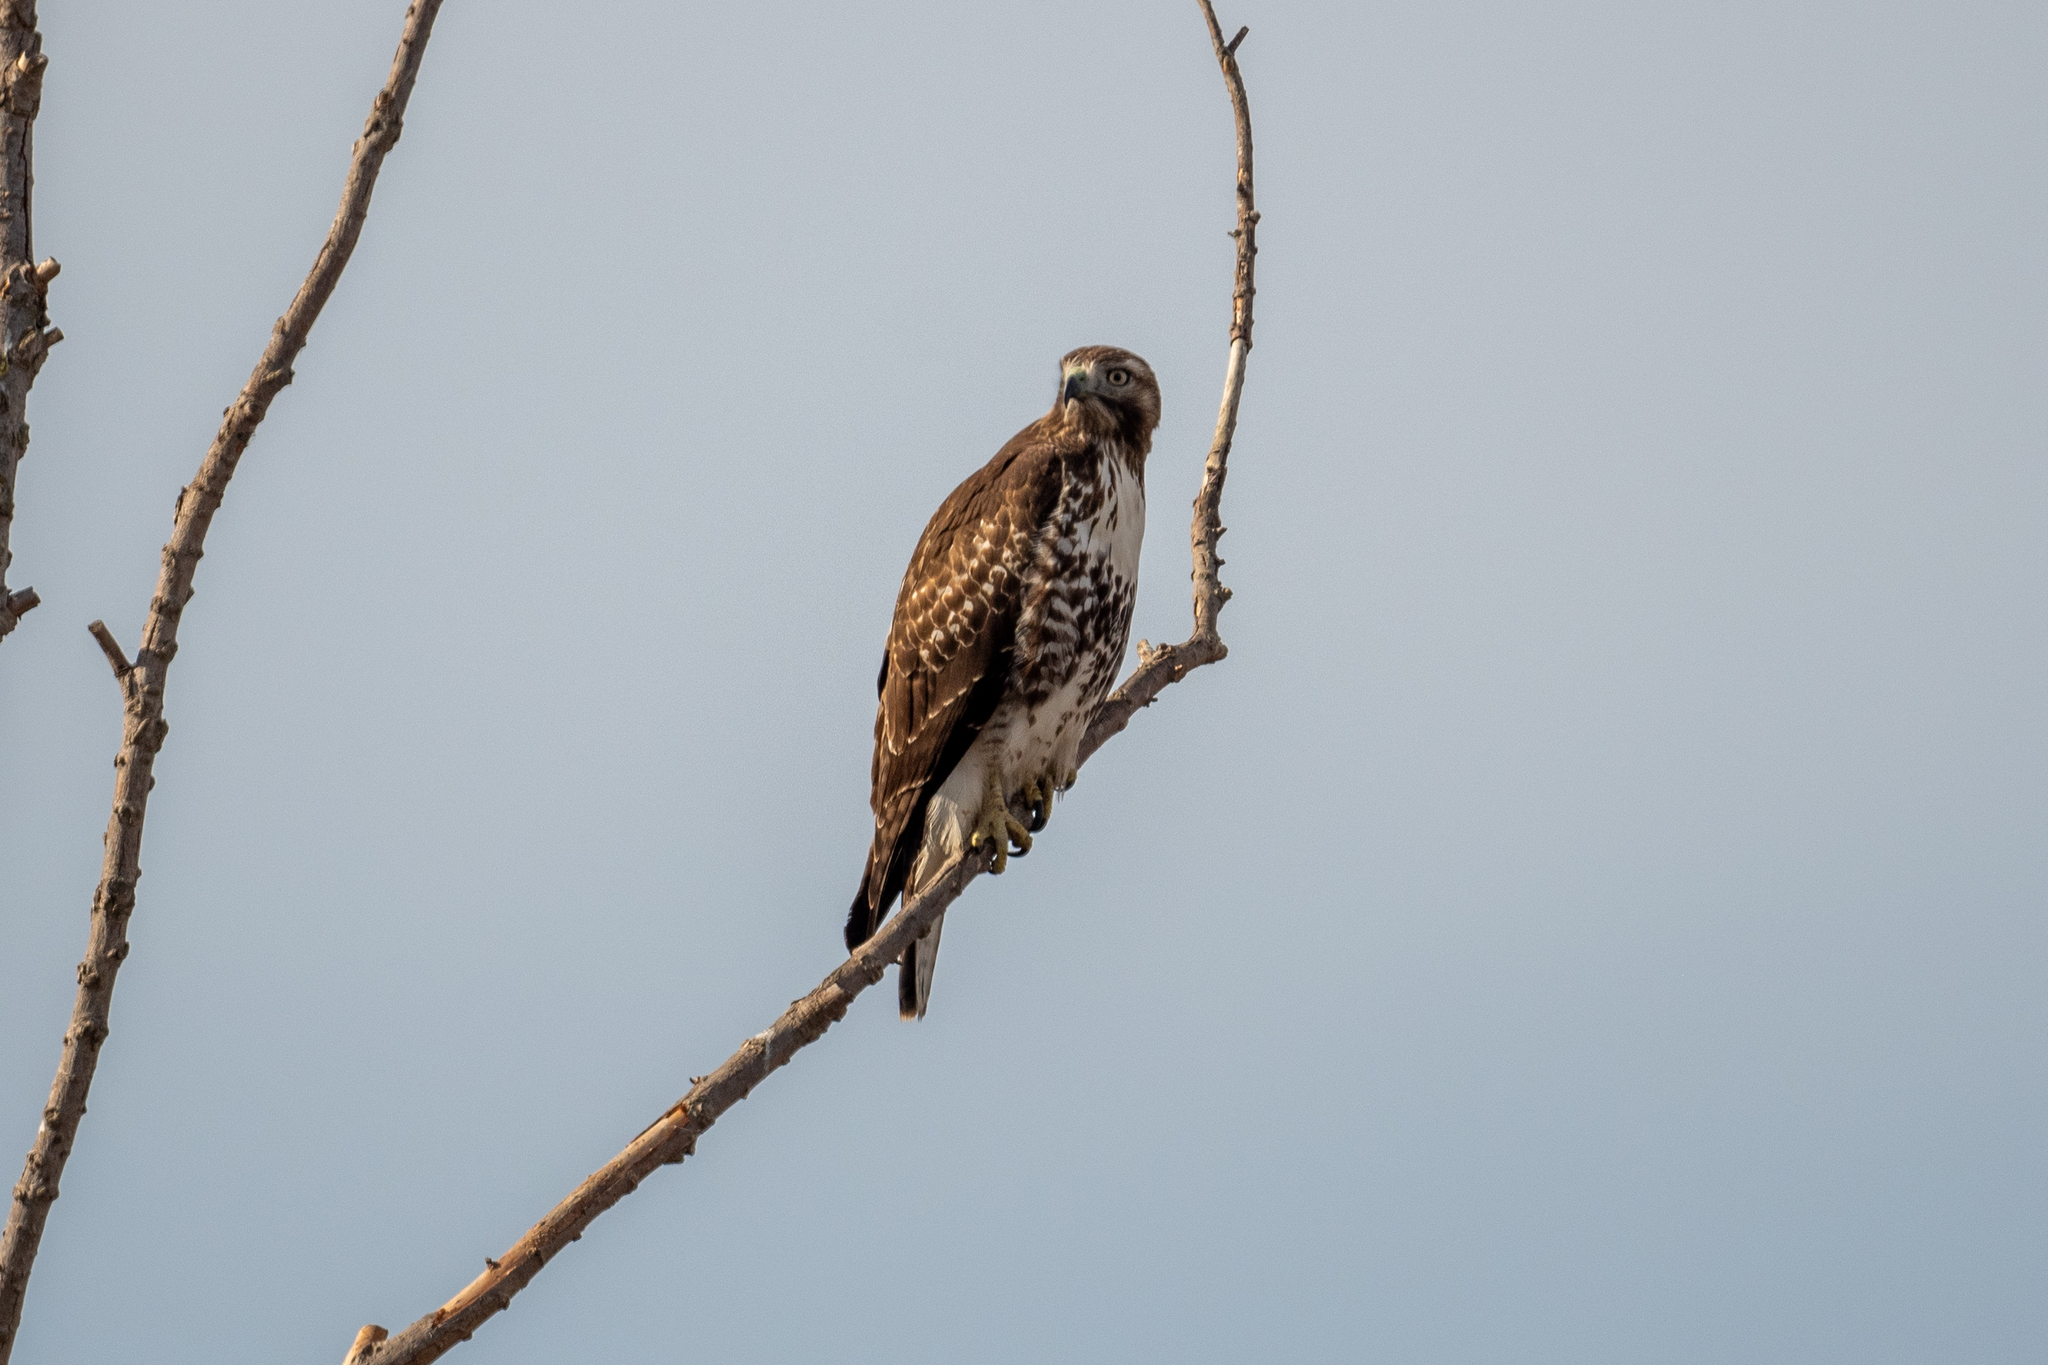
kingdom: Animalia
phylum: Chordata
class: Aves
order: Accipitriformes
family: Accipitridae
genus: Buteo
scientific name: Buteo jamaicensis
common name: Red-tailed hawk
